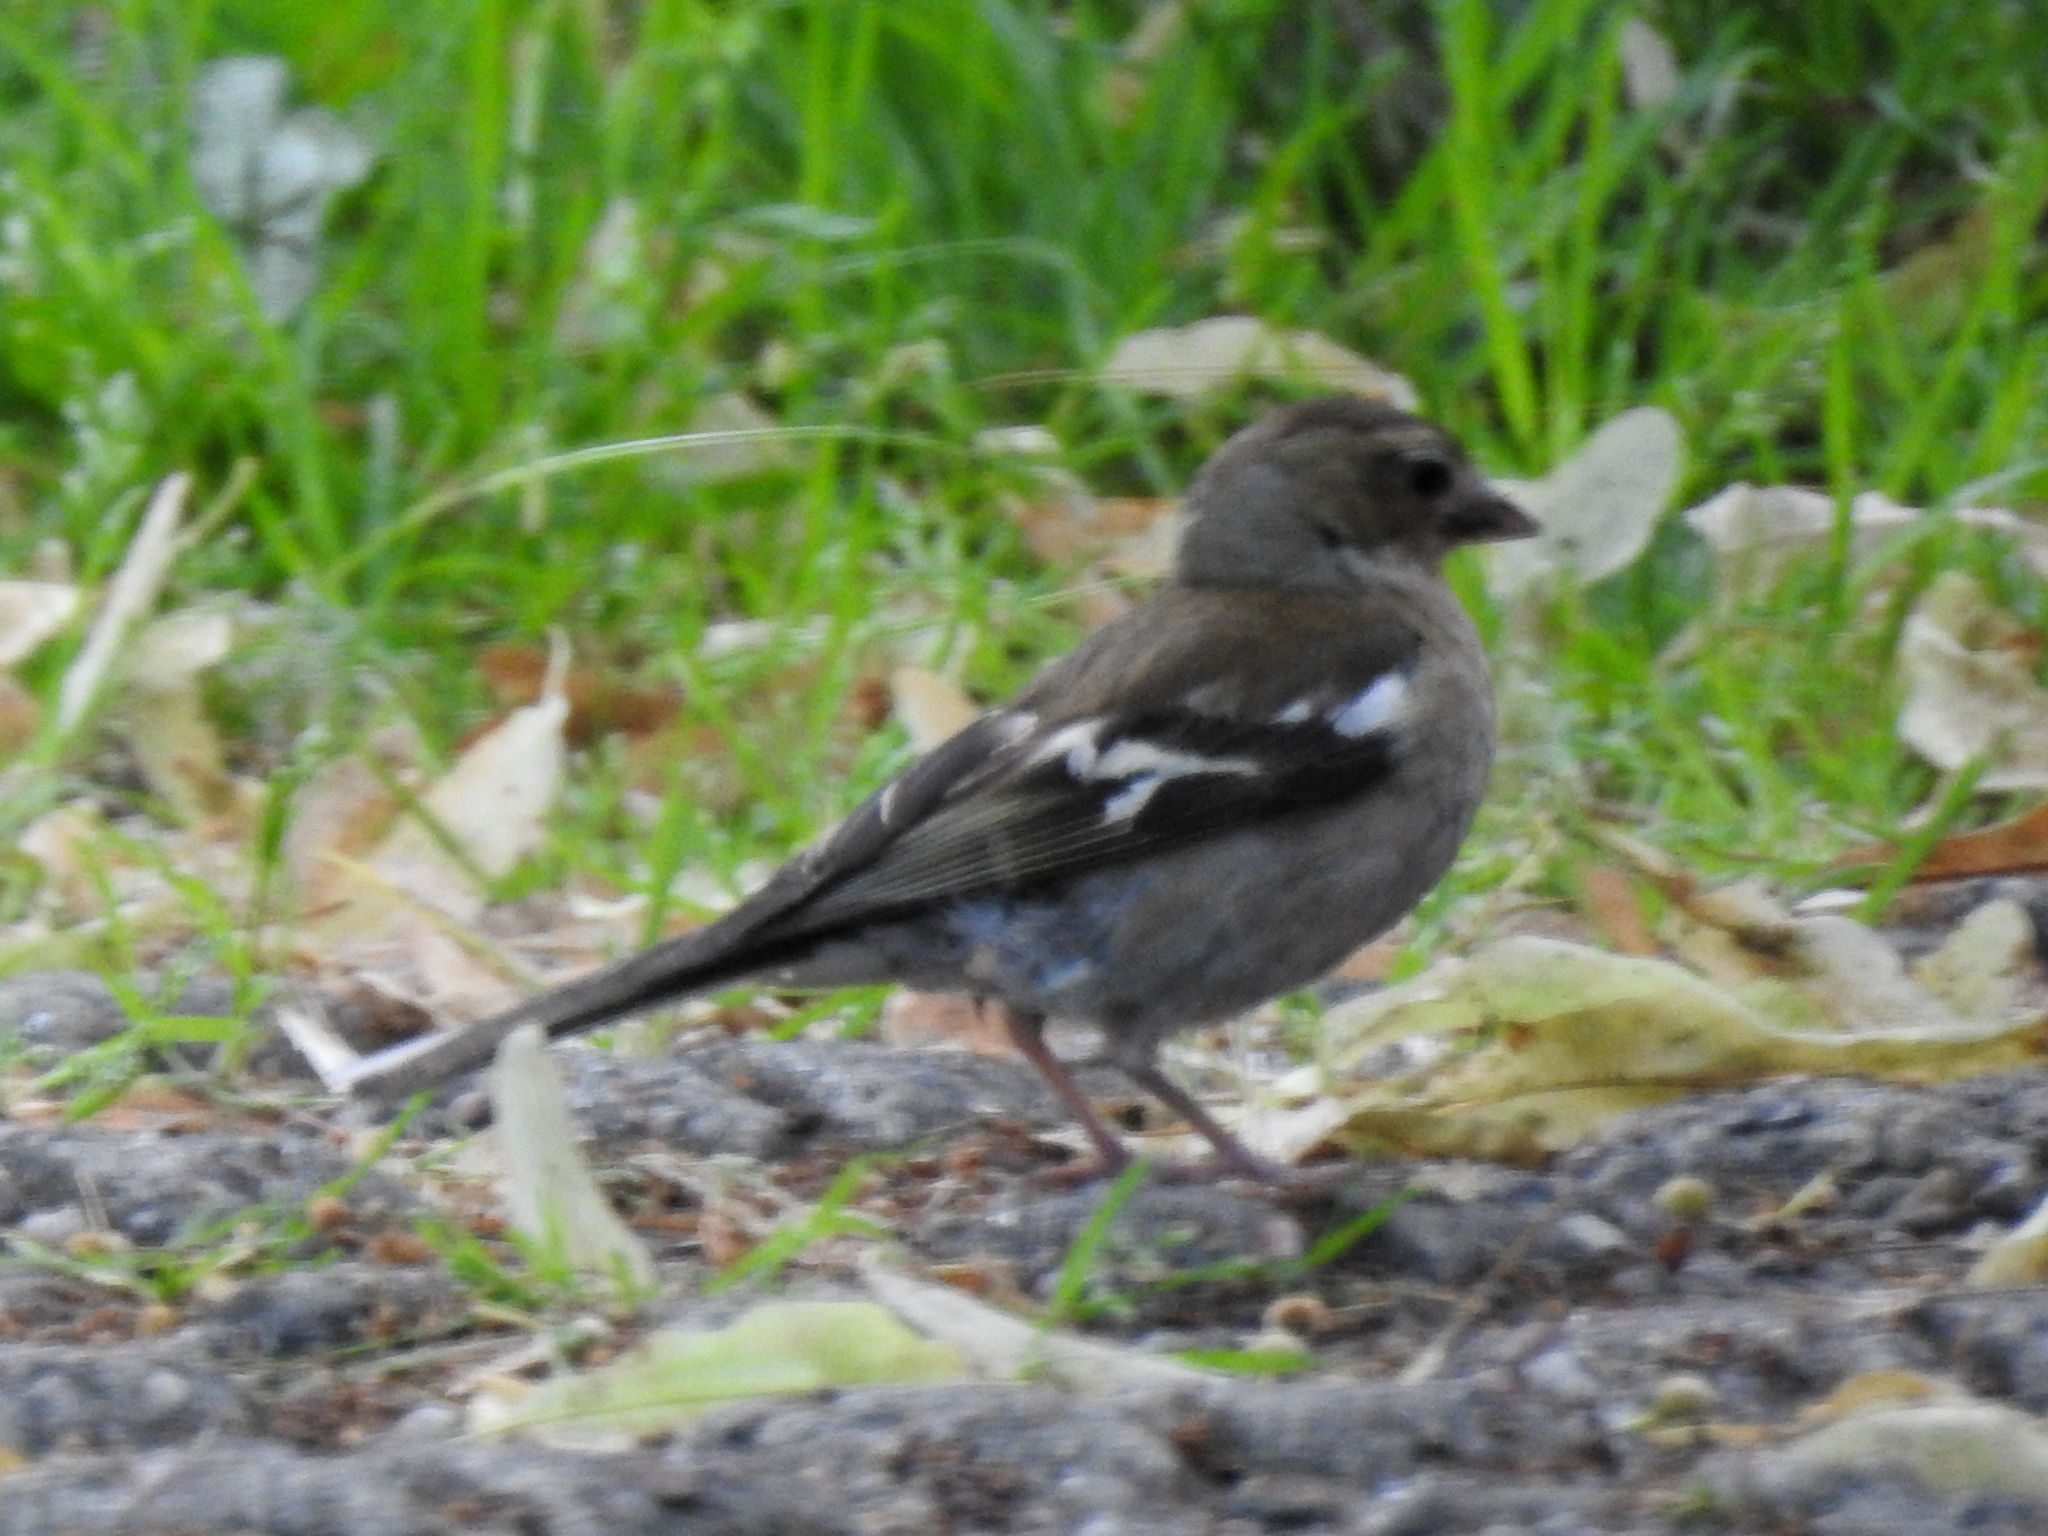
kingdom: Animalia
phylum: Chordata
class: Aves
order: Passeriformes
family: Fringillidae
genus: Fringilla
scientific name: Fringilla coelebs
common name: Common chaffinch
